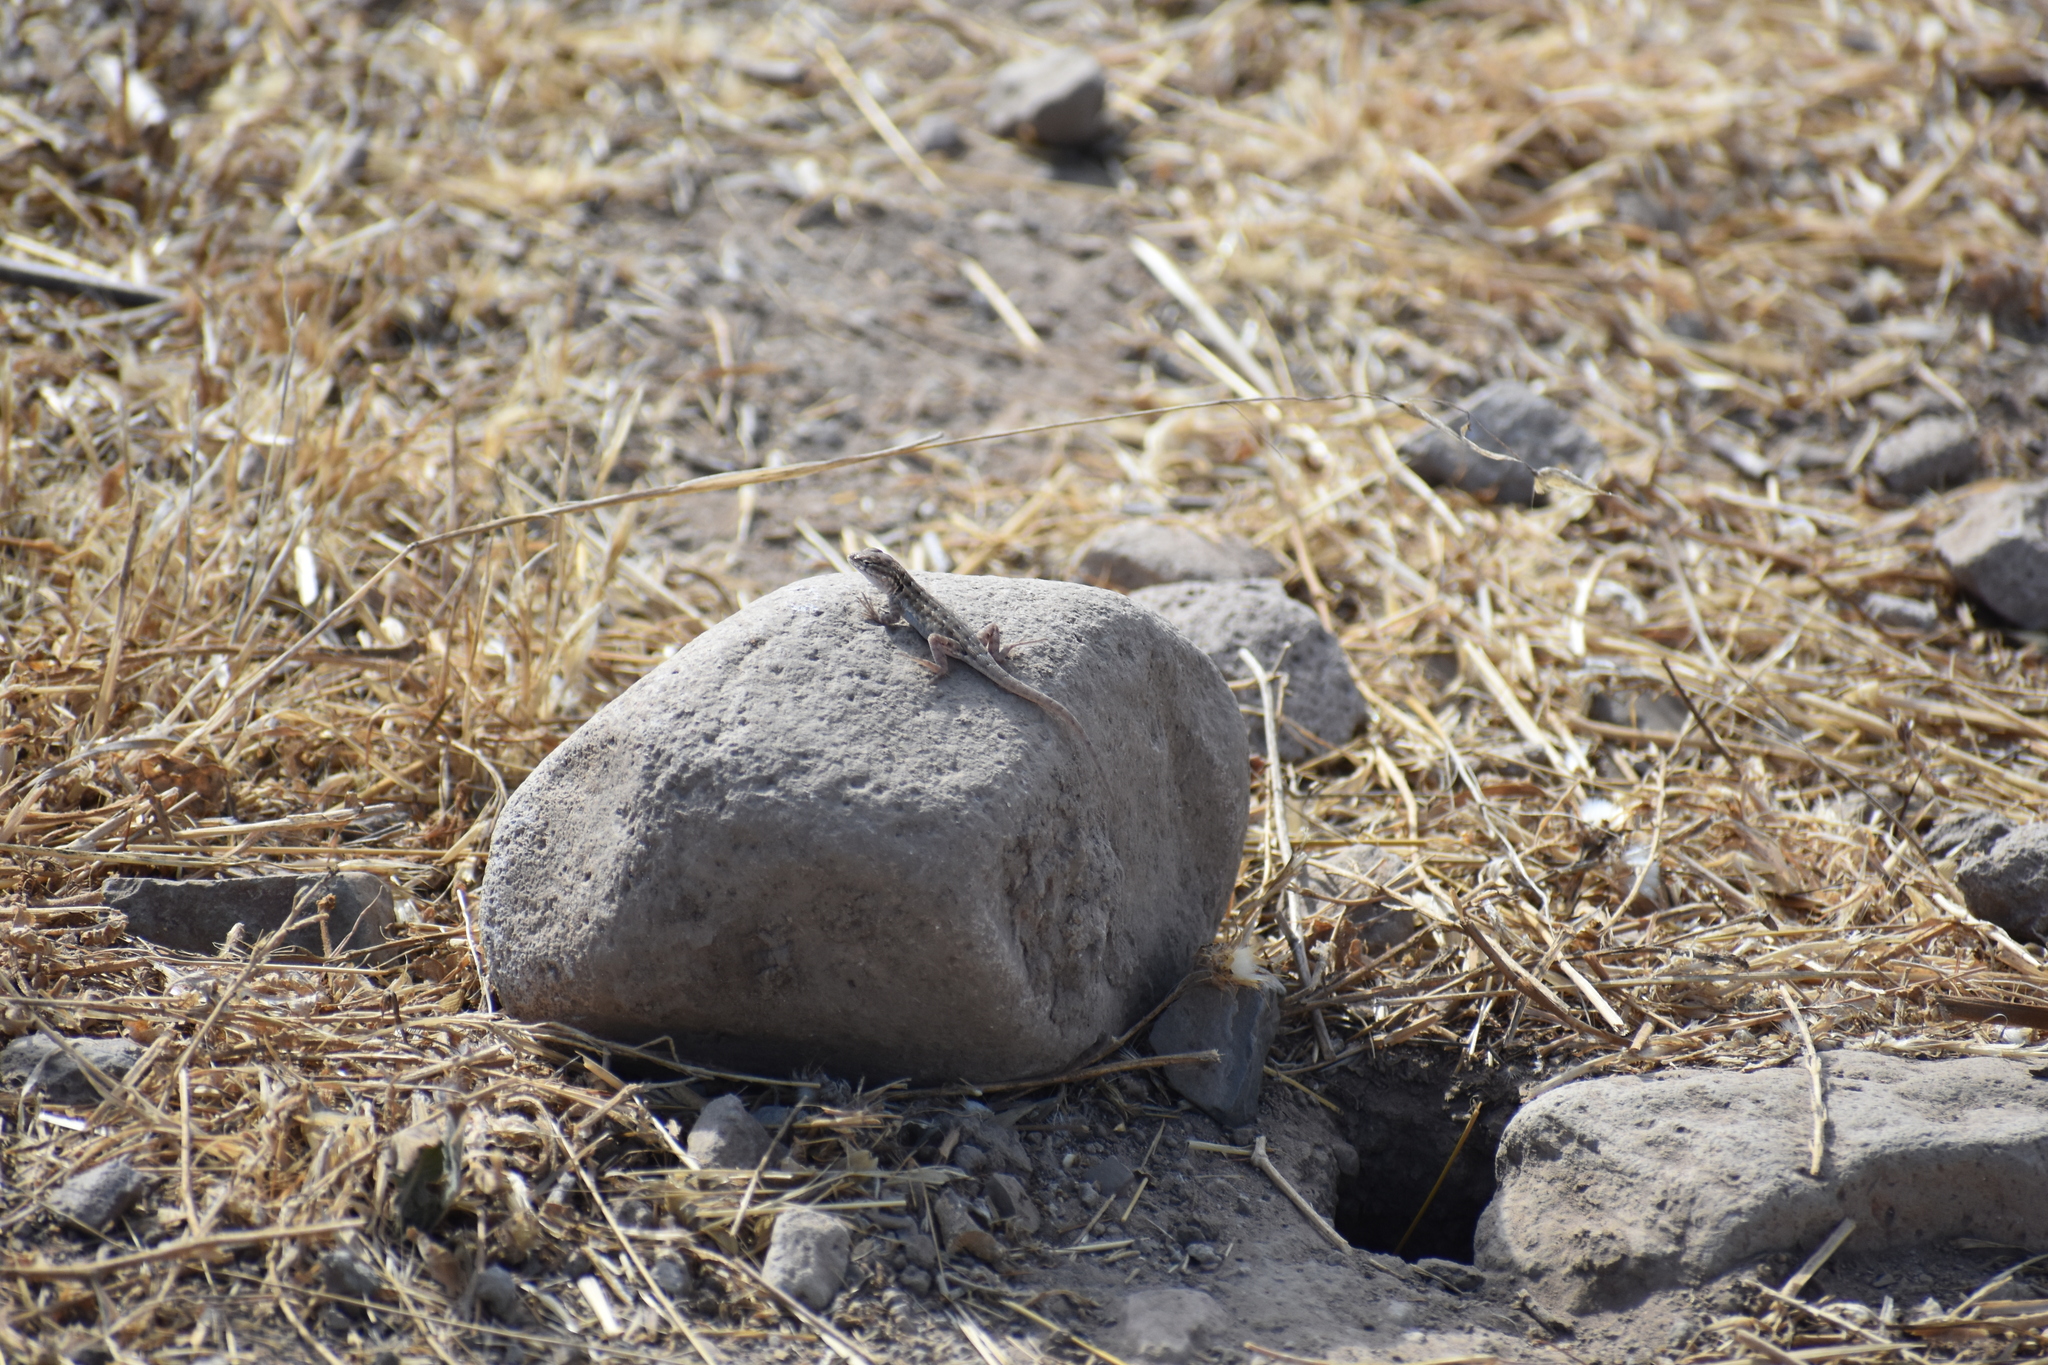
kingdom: Animalia
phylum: Chordata
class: Squamata
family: Phrynosomatidae
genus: Uta
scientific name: Uta stansburiana
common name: Side-blotched lizard
